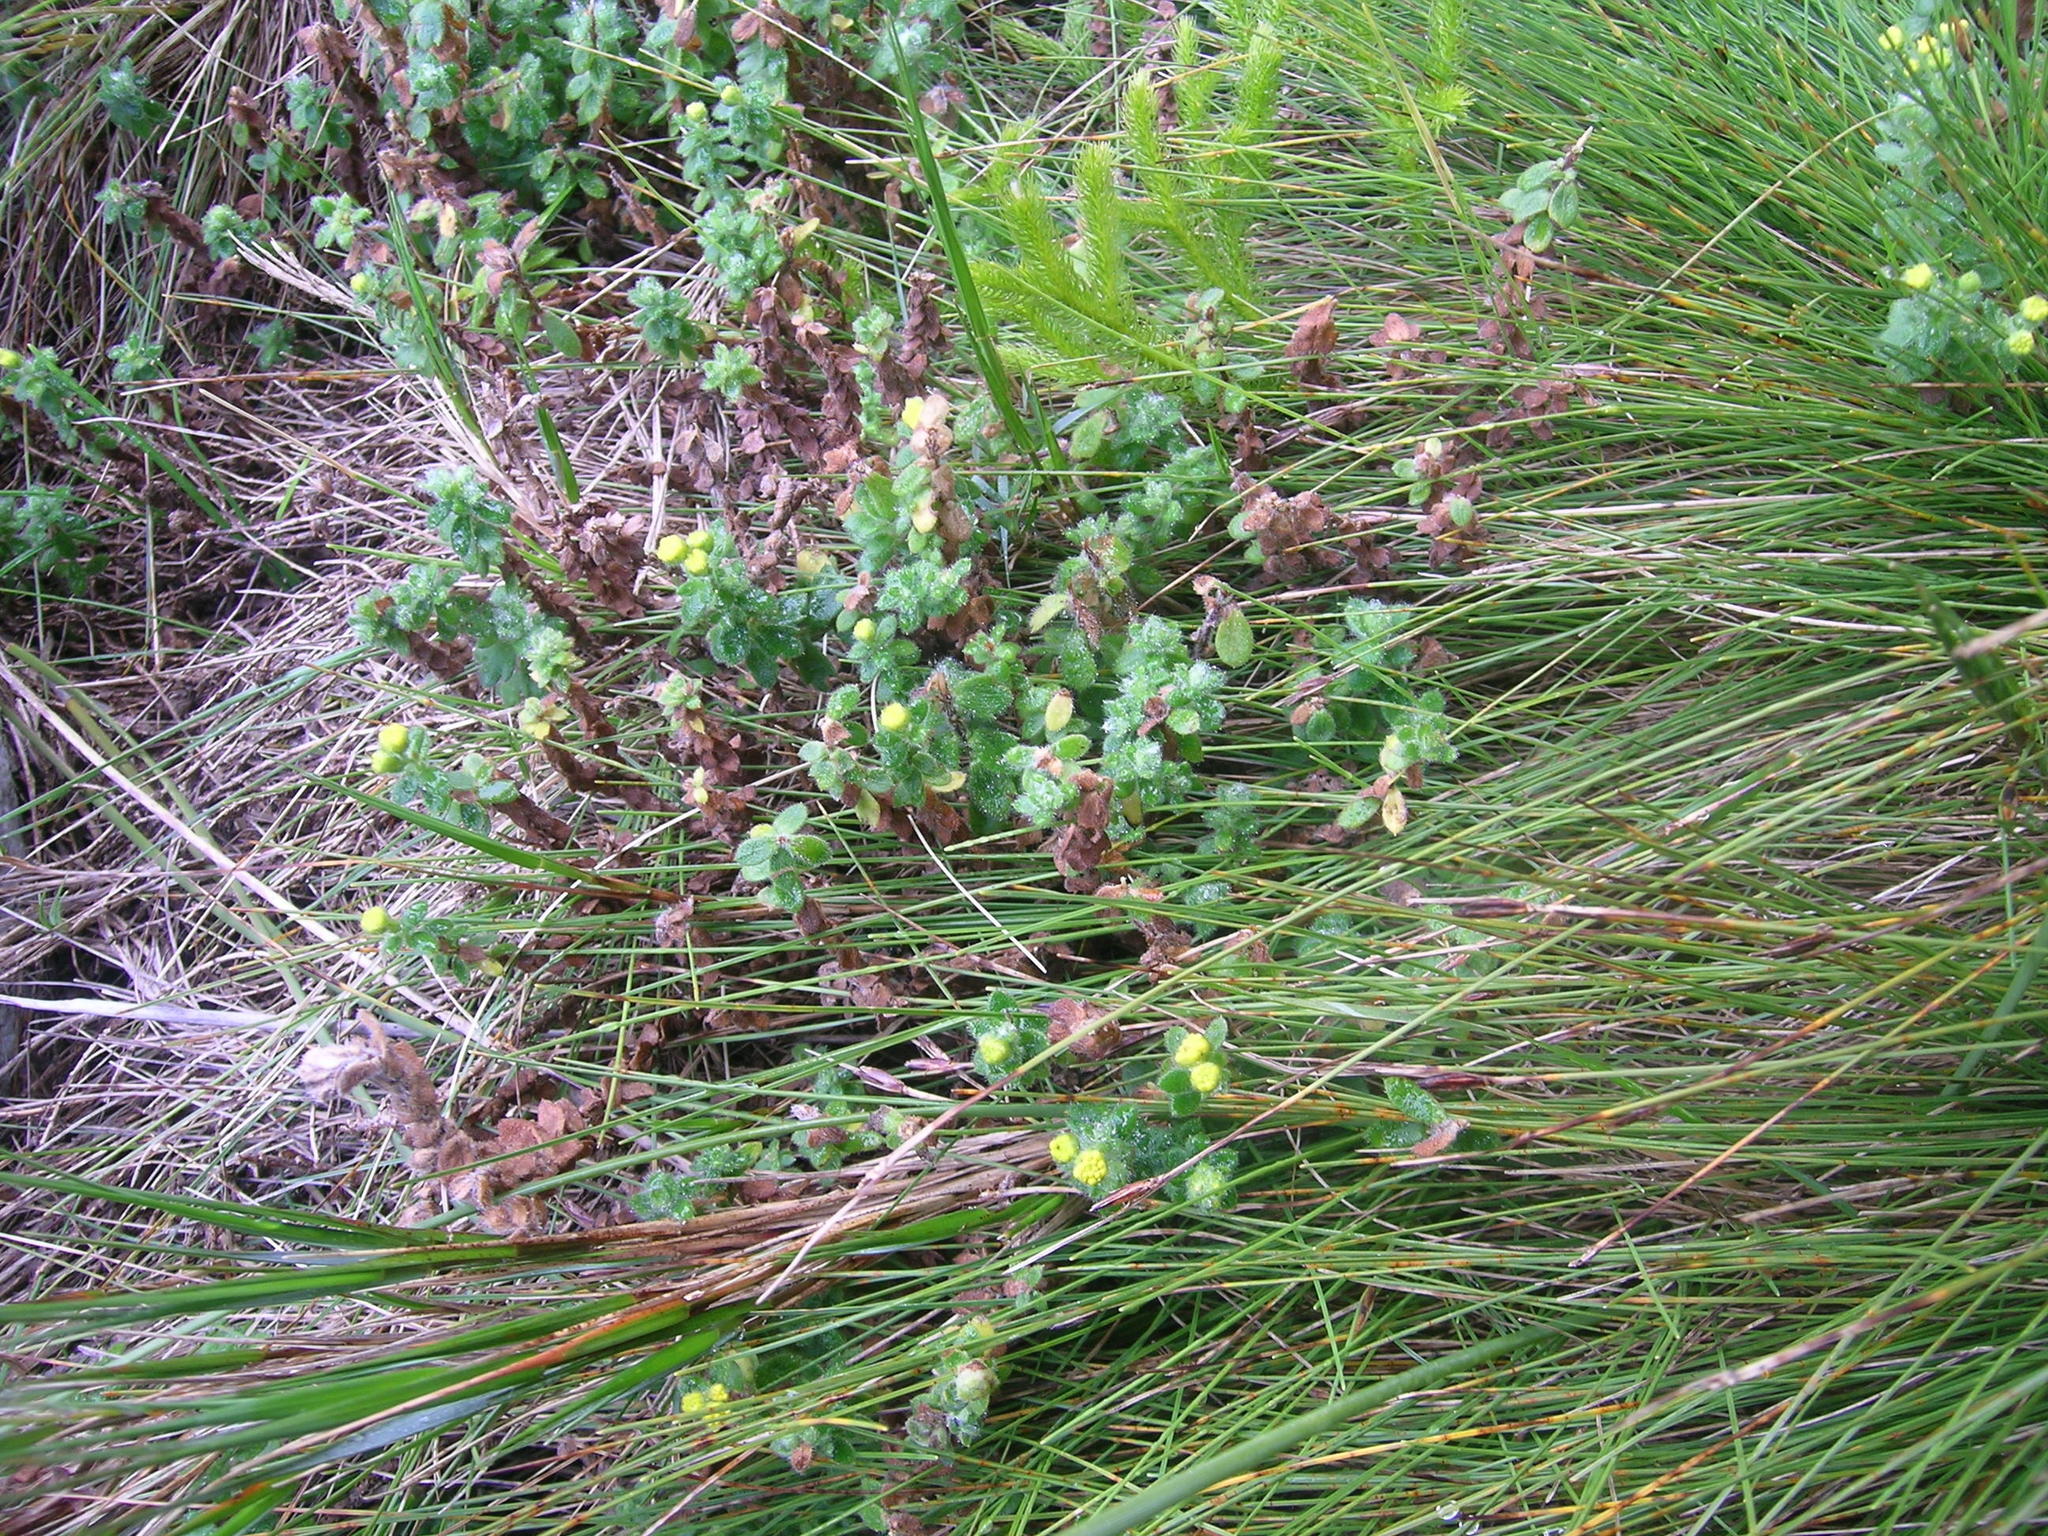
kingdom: Plantae
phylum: Tracheophyta
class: Magnoliopsida
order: Asterales
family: Asteraceae
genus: Hippia
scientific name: Hippia simplicior
